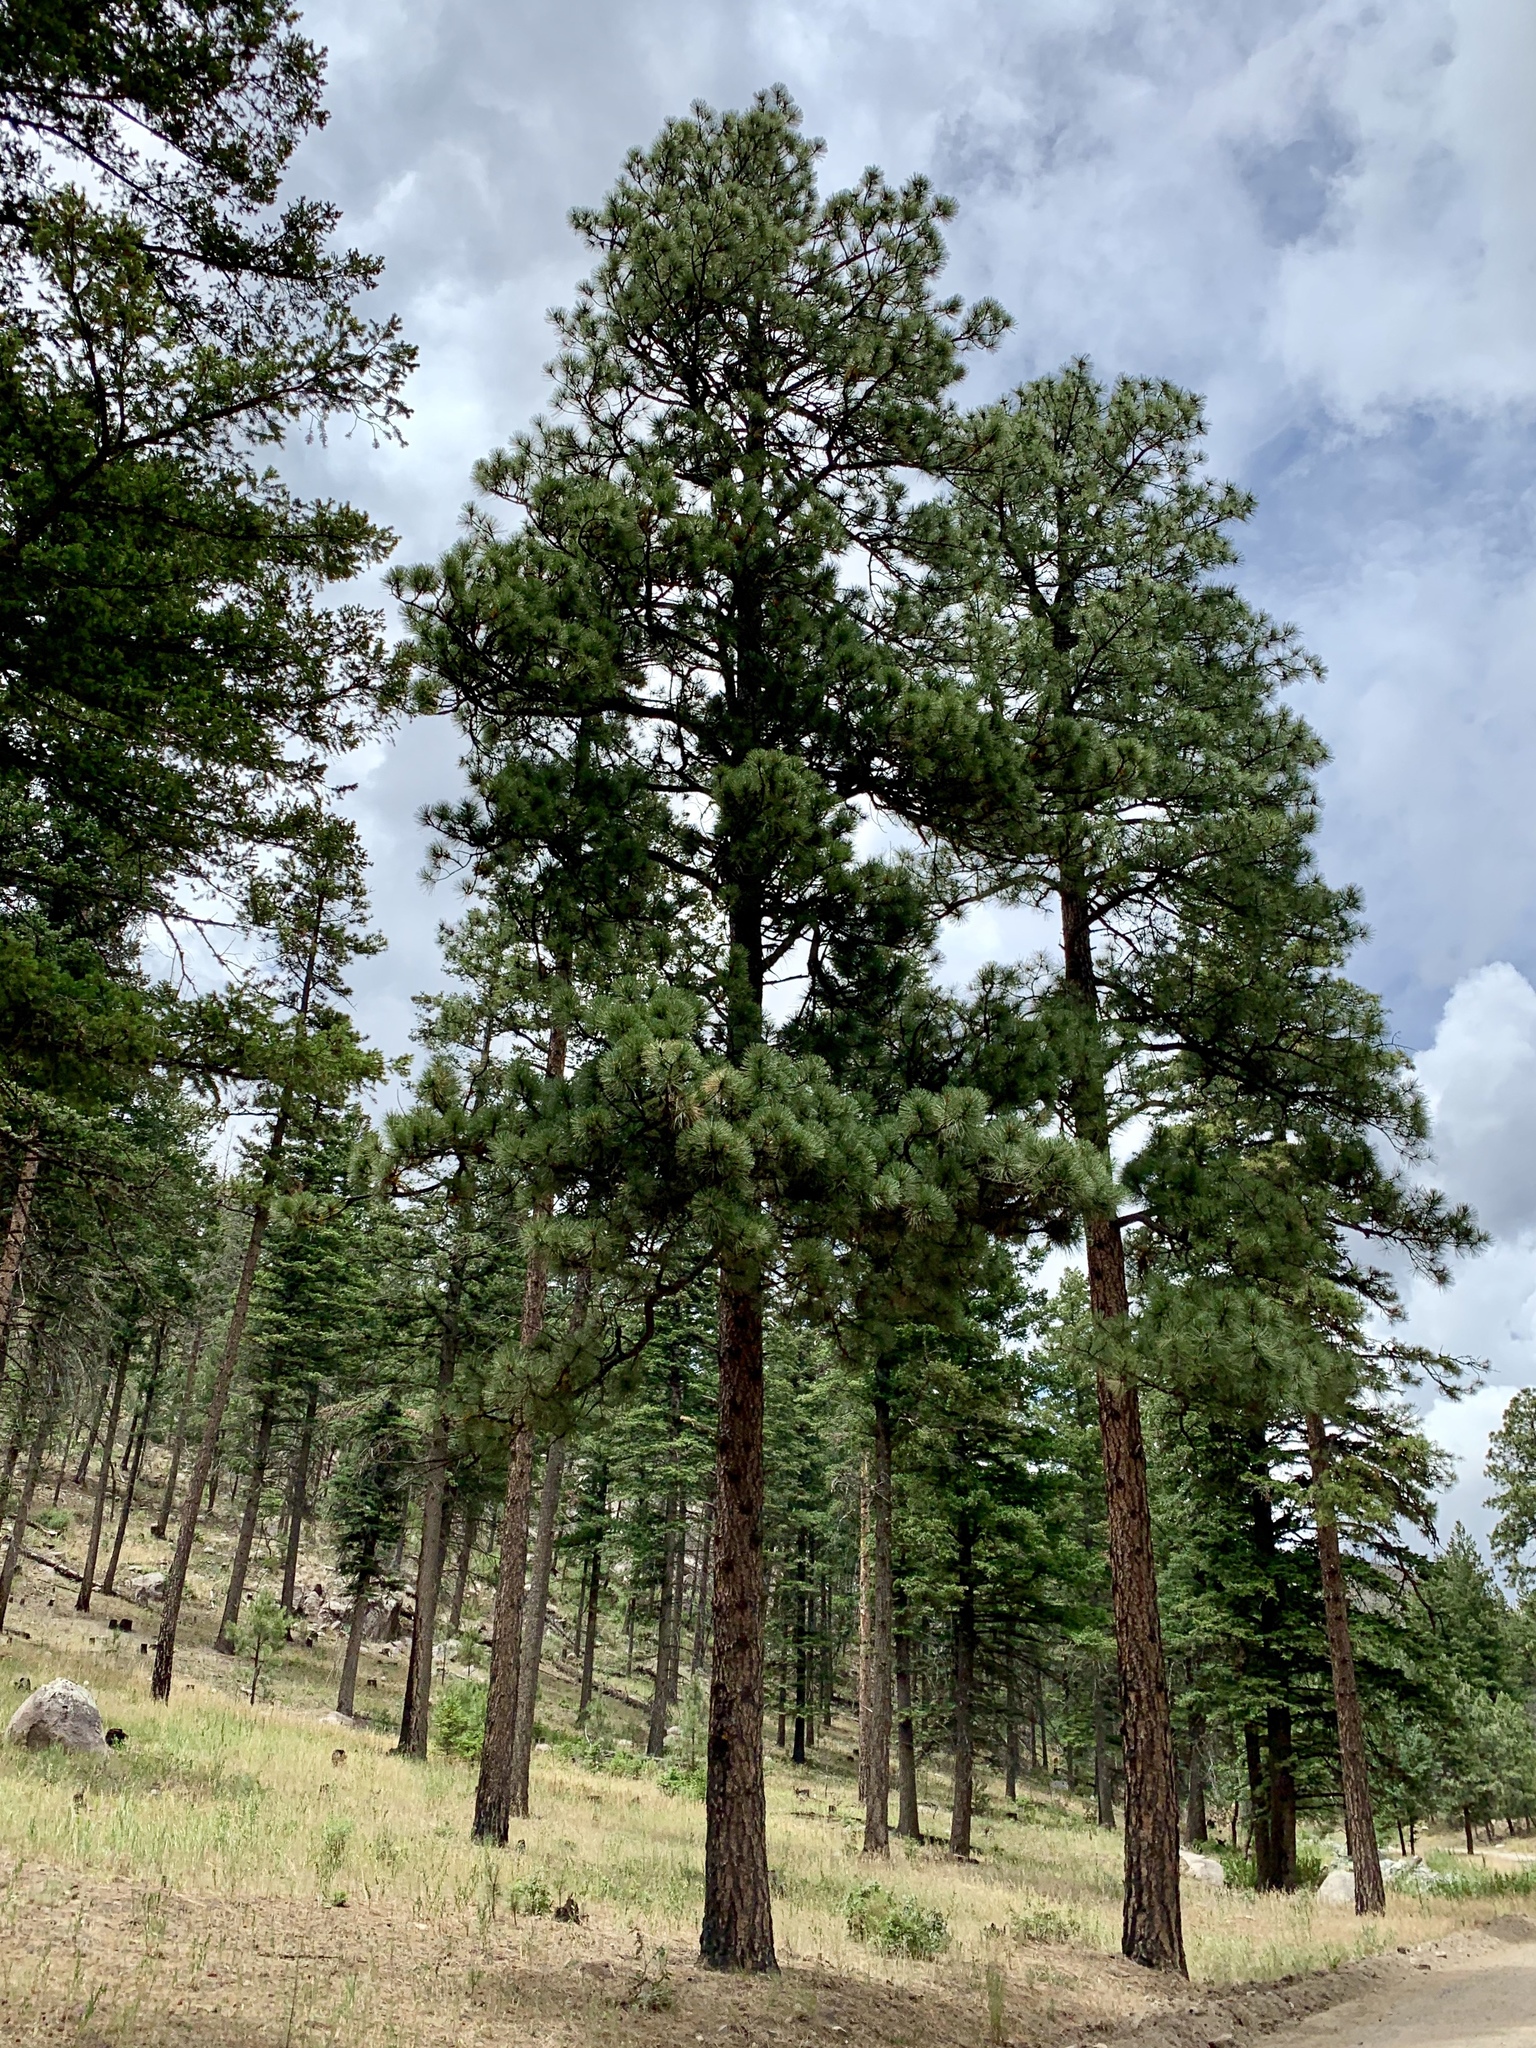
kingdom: Plantae
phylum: Tracheophyta
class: Pinopsida
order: Pinales
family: Pinaceae
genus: Pinus
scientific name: Pinus ponderosa
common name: Western yellow-pine
